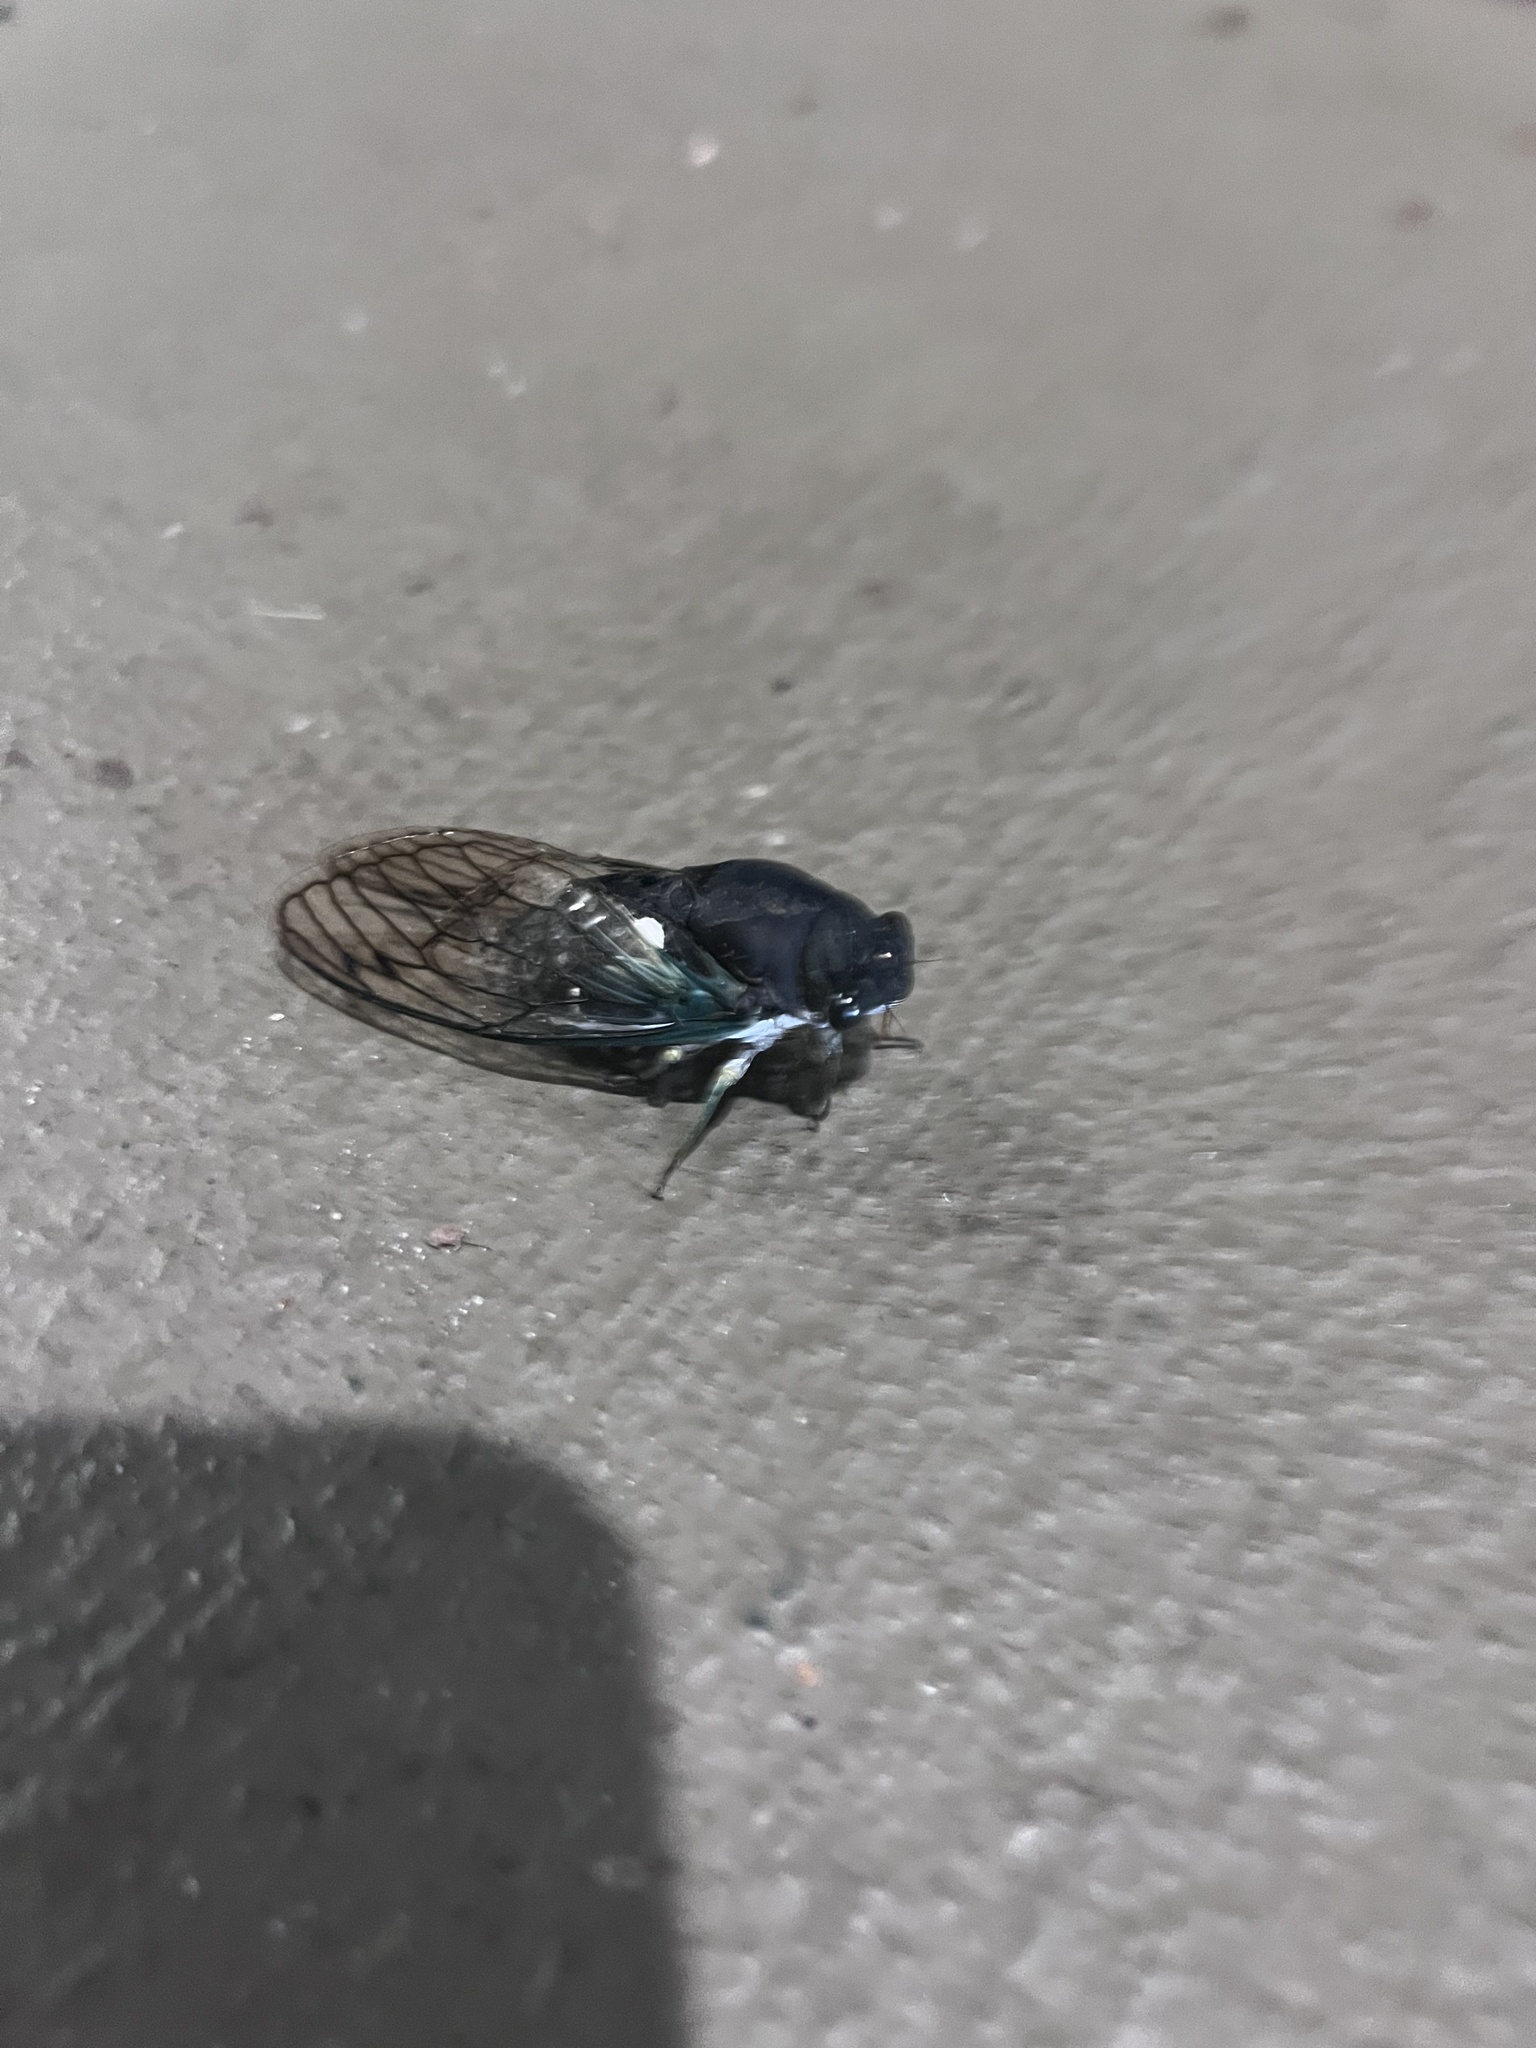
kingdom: Animalia
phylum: Arthropoda
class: Insecta
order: Hemiptera
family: Cicadidae
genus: Neotibicen
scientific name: Neotibicen tibicen
